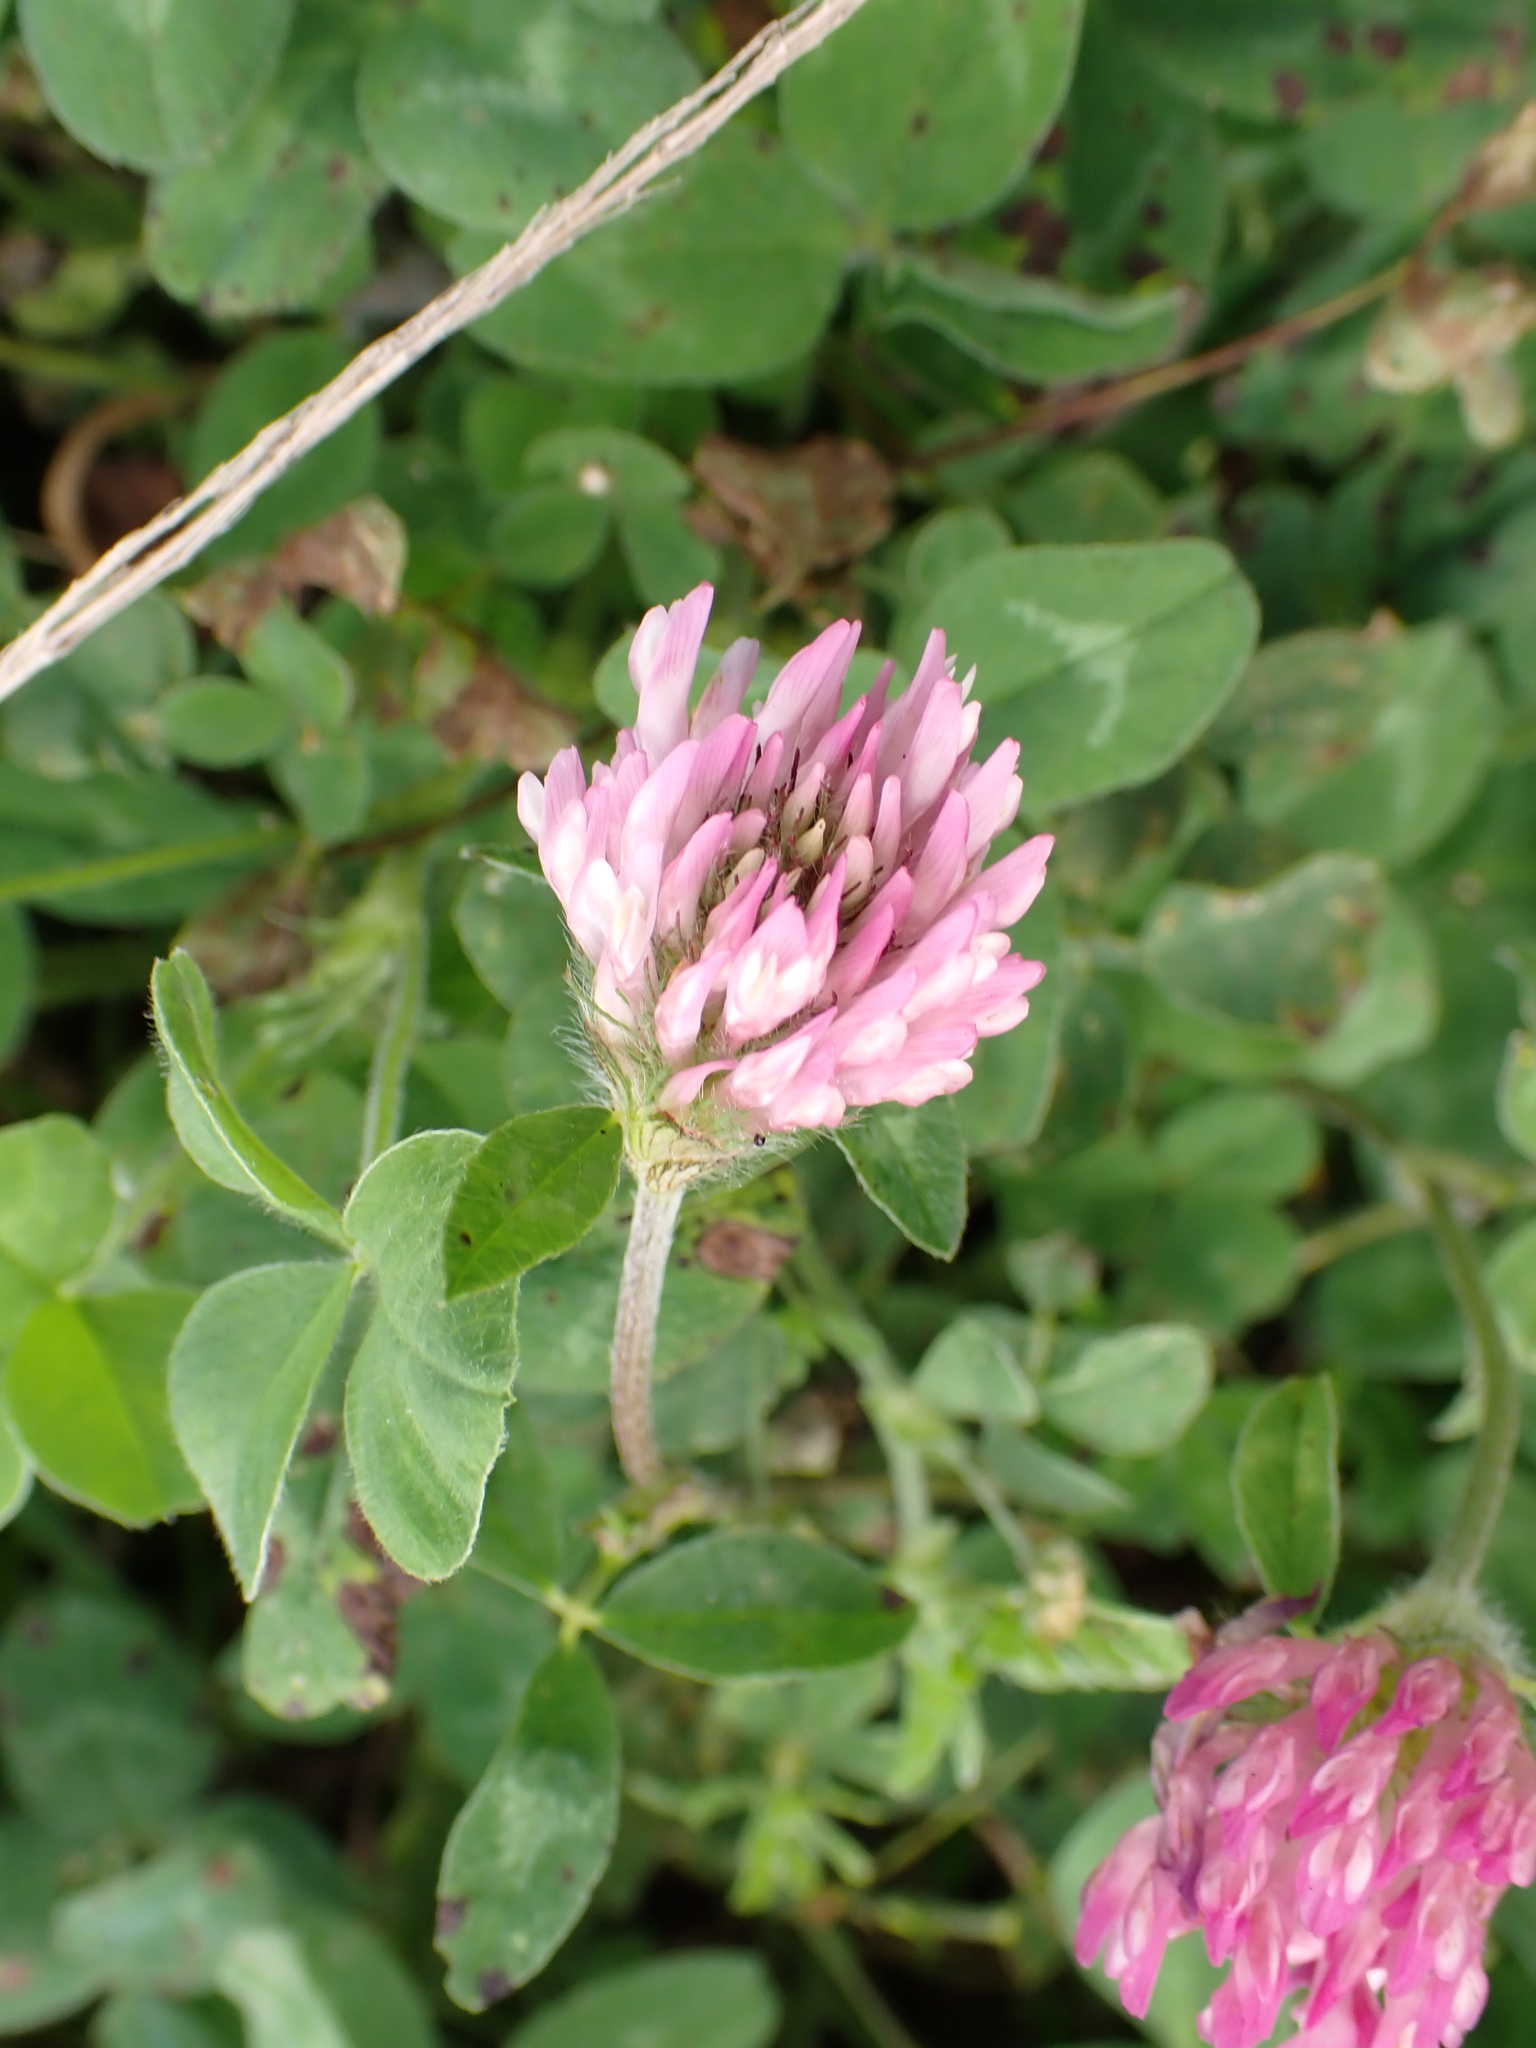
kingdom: Plantae
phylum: Tracheophyta
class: Magnoliopsida
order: Fabales
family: Fabaceae
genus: Trifolium
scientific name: Trifolium pratense
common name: Red clover
